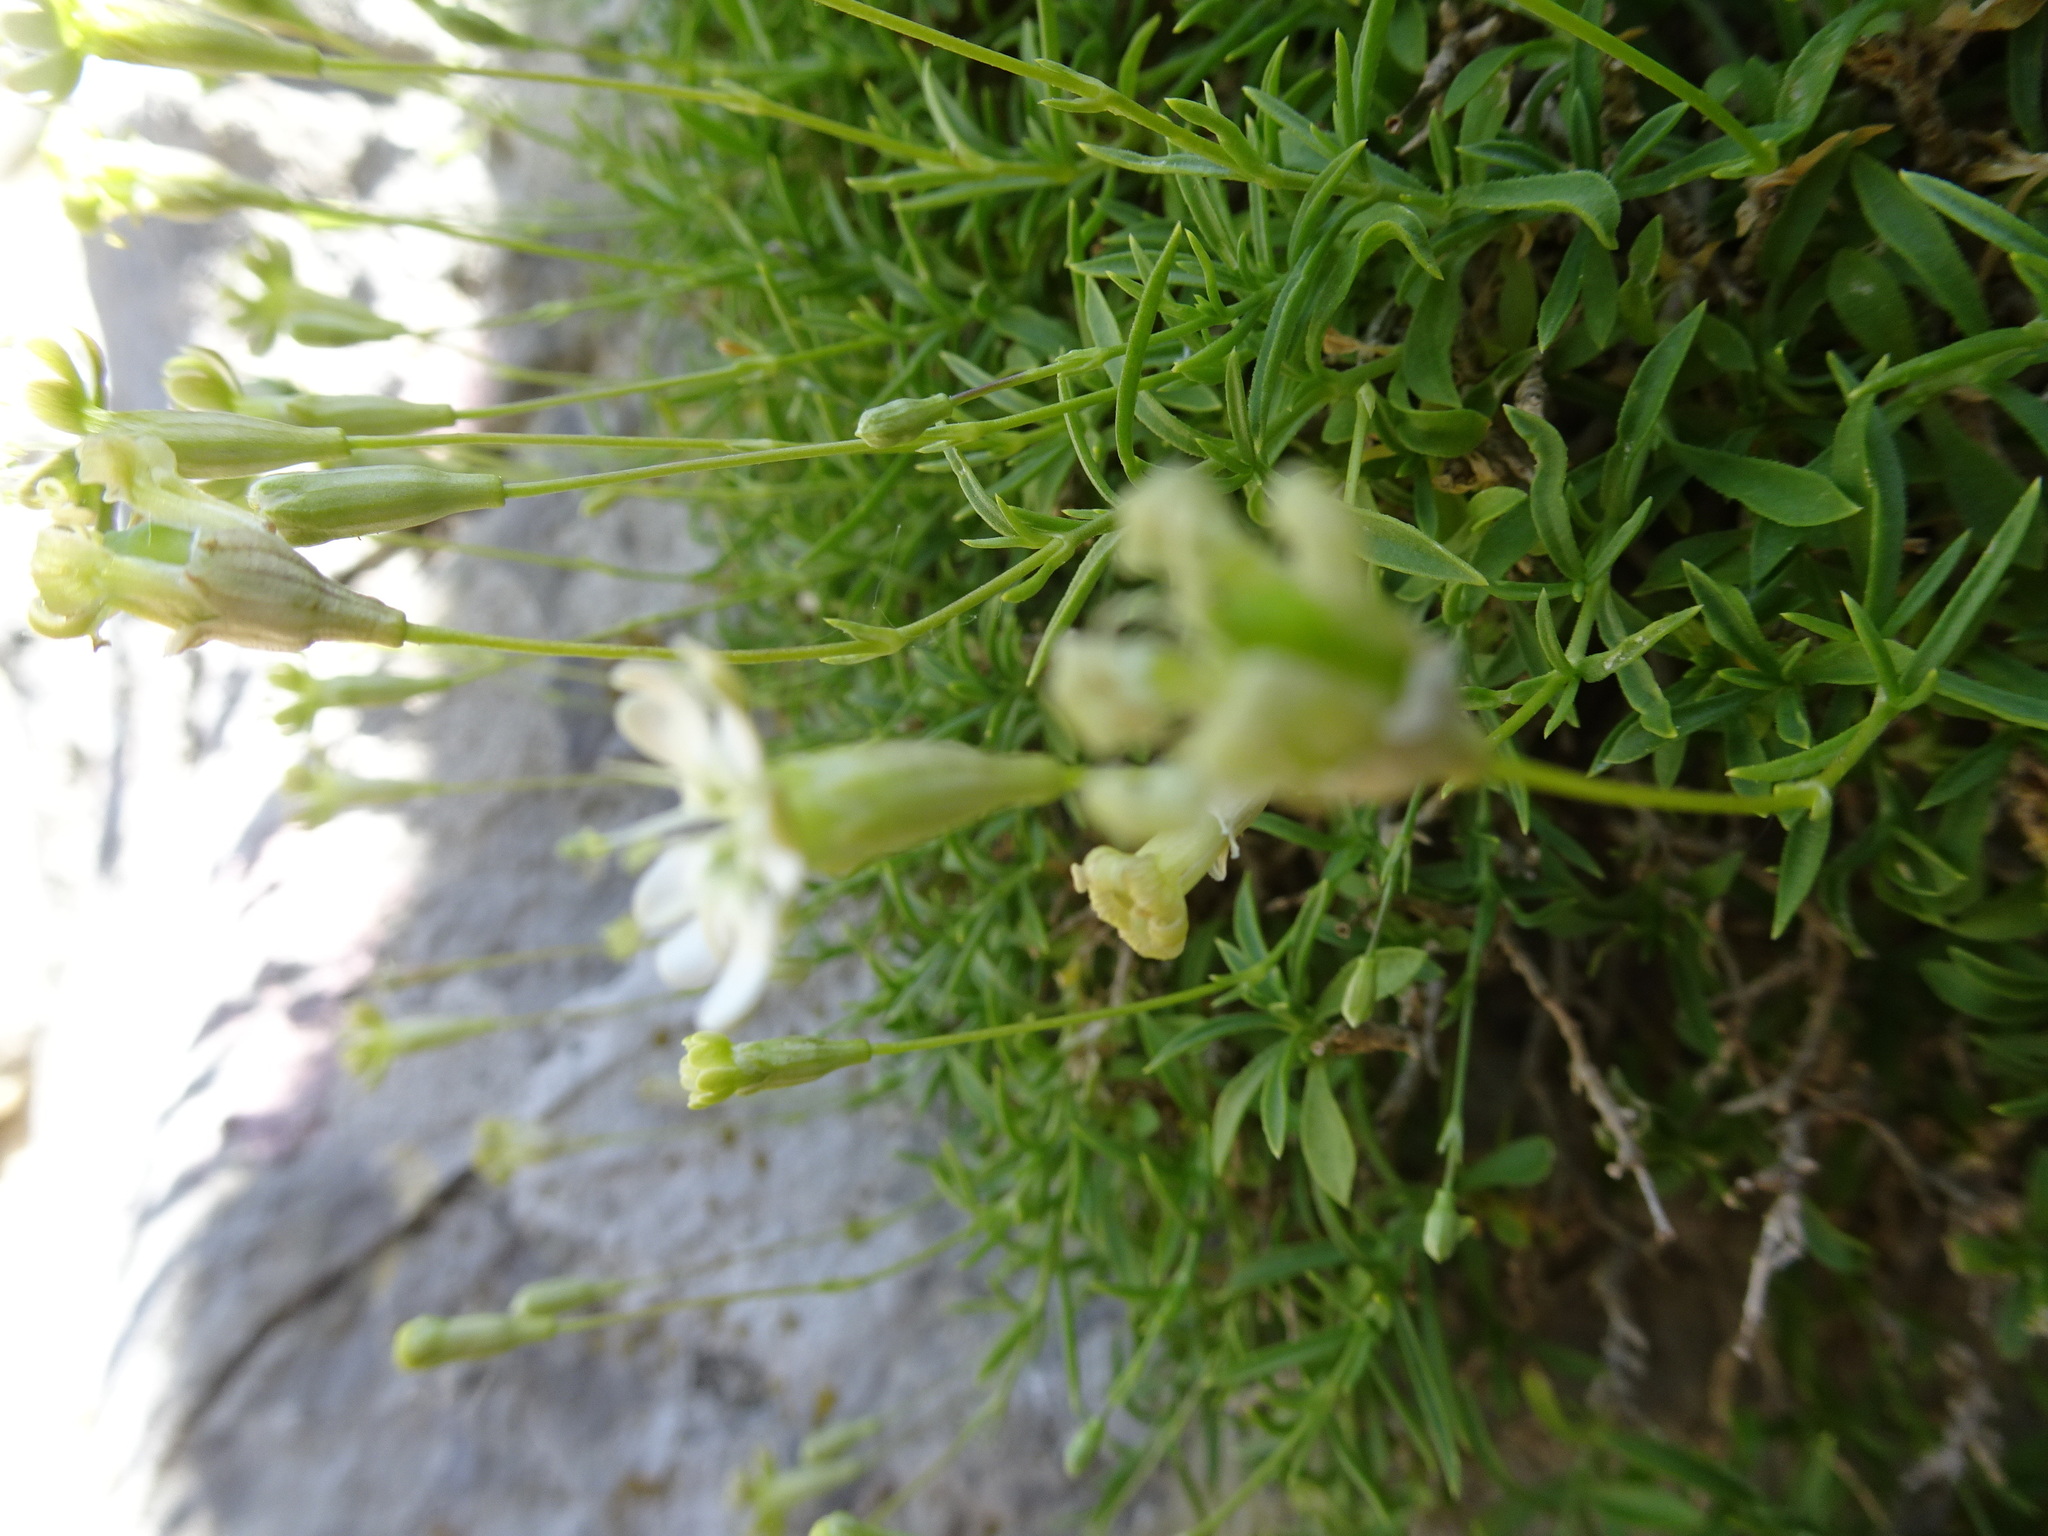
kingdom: Plantae
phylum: Tracheophyta
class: Magnoliopsida
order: Caryophyllales
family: Caryophyllaceae
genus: Silene
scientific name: Silene saxifraga
